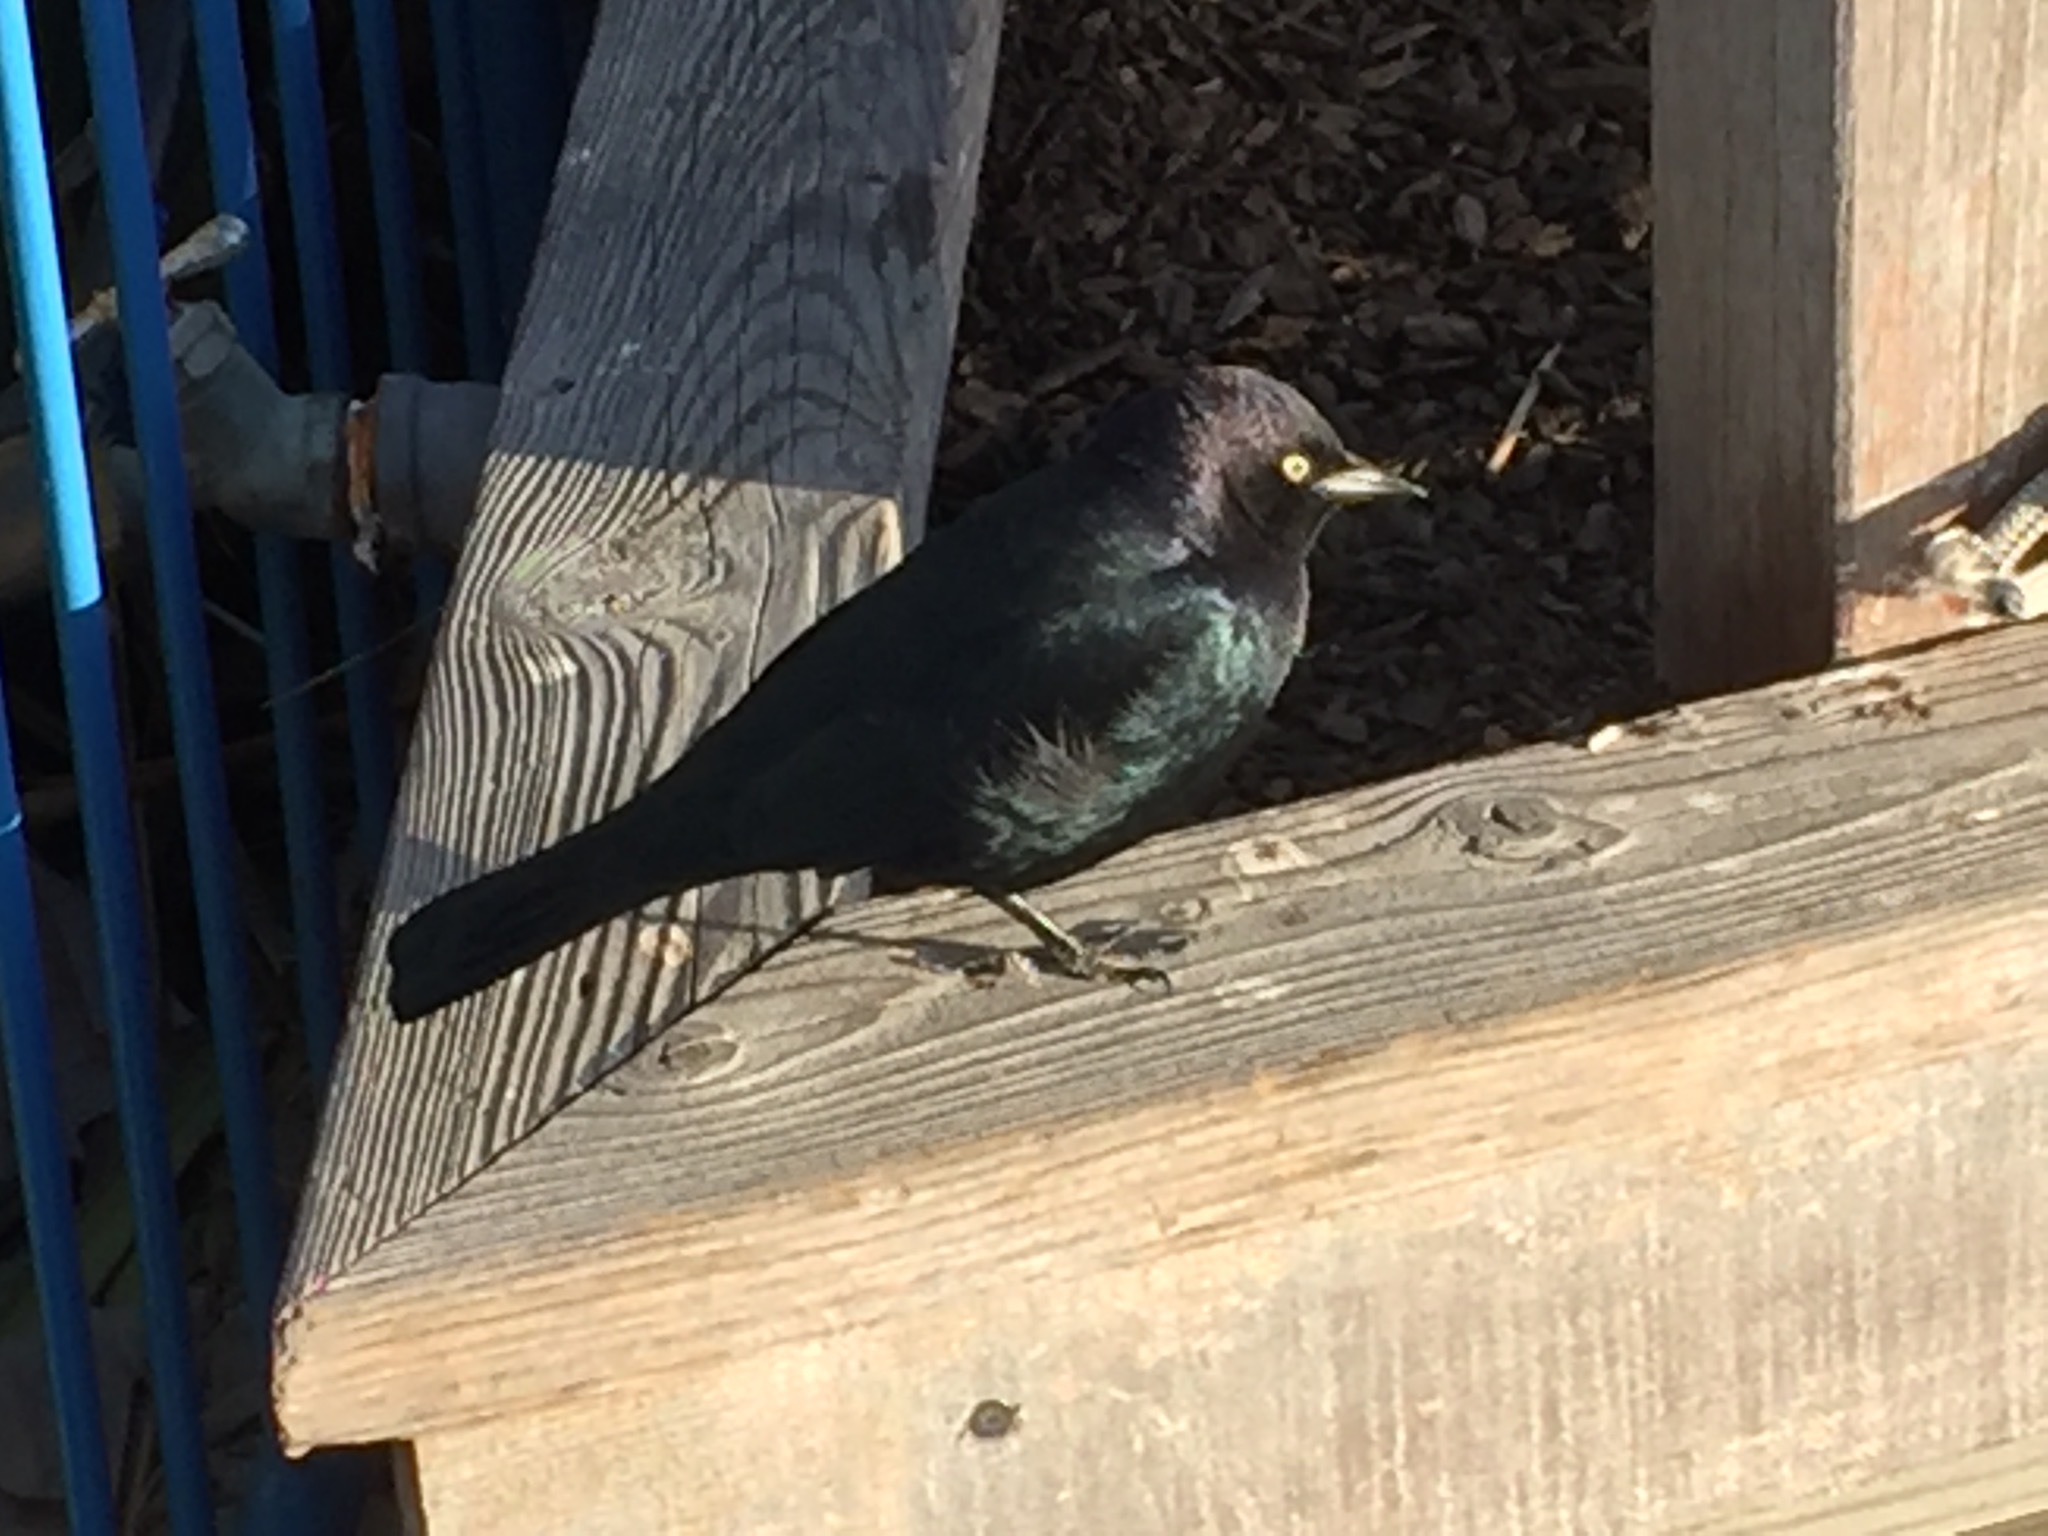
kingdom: Animalia
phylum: Chordata
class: Aves
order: Passeriformes
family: Icteridae
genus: Euphagus
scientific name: Euphagus cyanocephalus
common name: Brewer's blackbird
